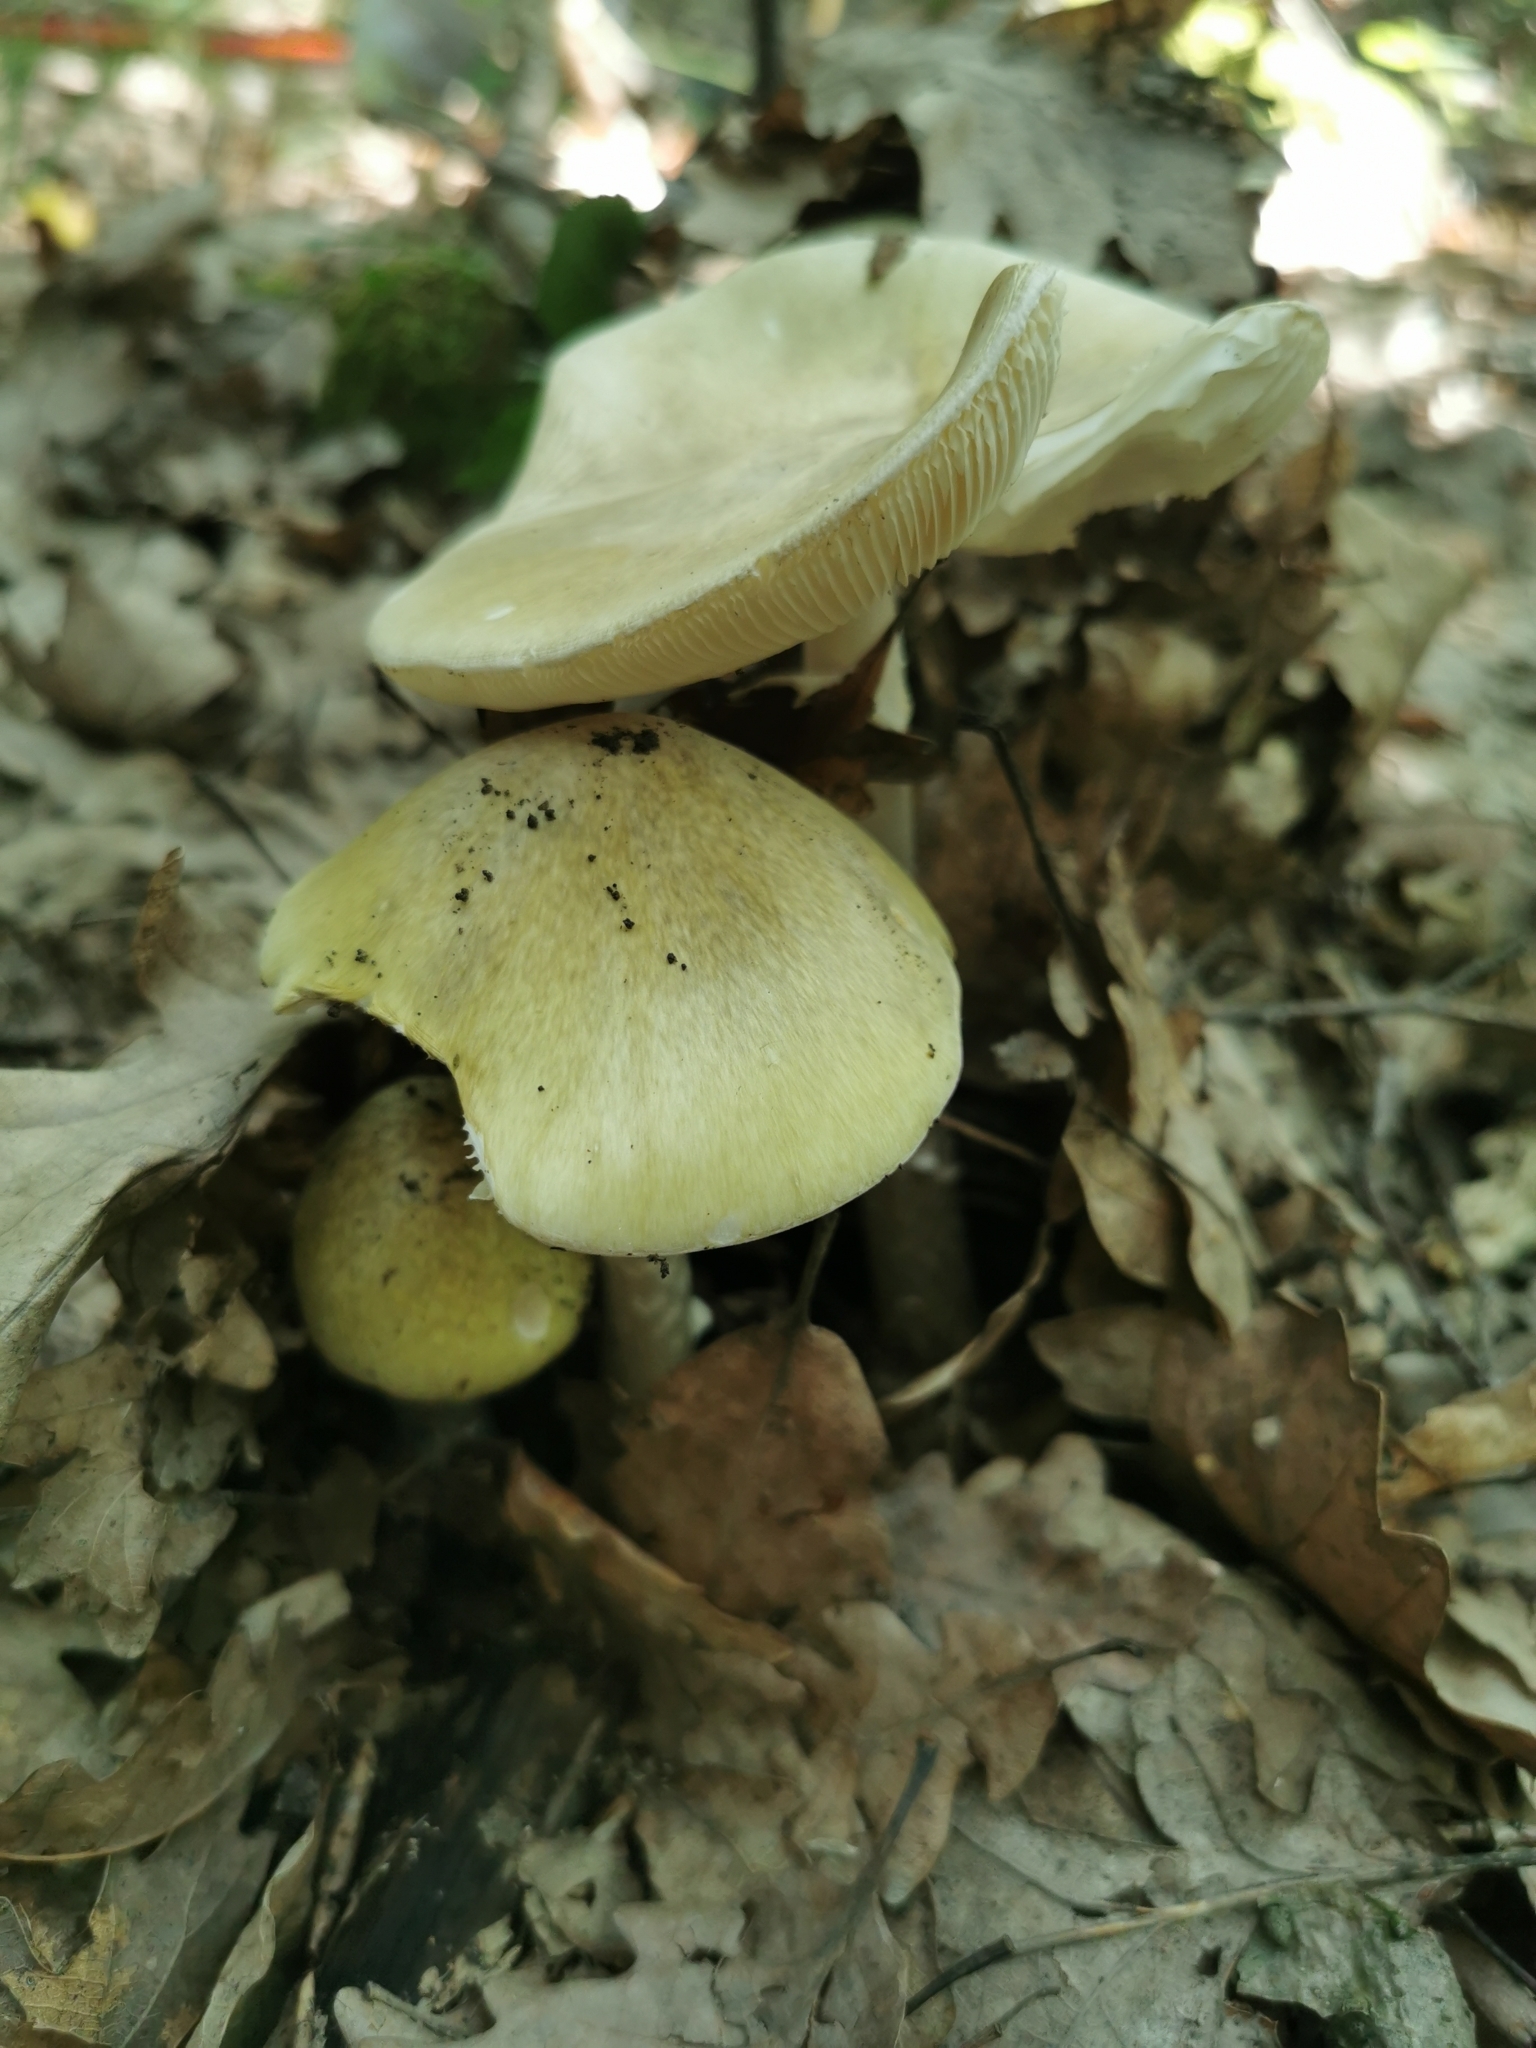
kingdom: Fungi
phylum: Basidiomycota
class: Agaricomycetes
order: Agaricales
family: Amanitaceae
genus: Amanita
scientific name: Amanita phalloides
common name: Death cap
